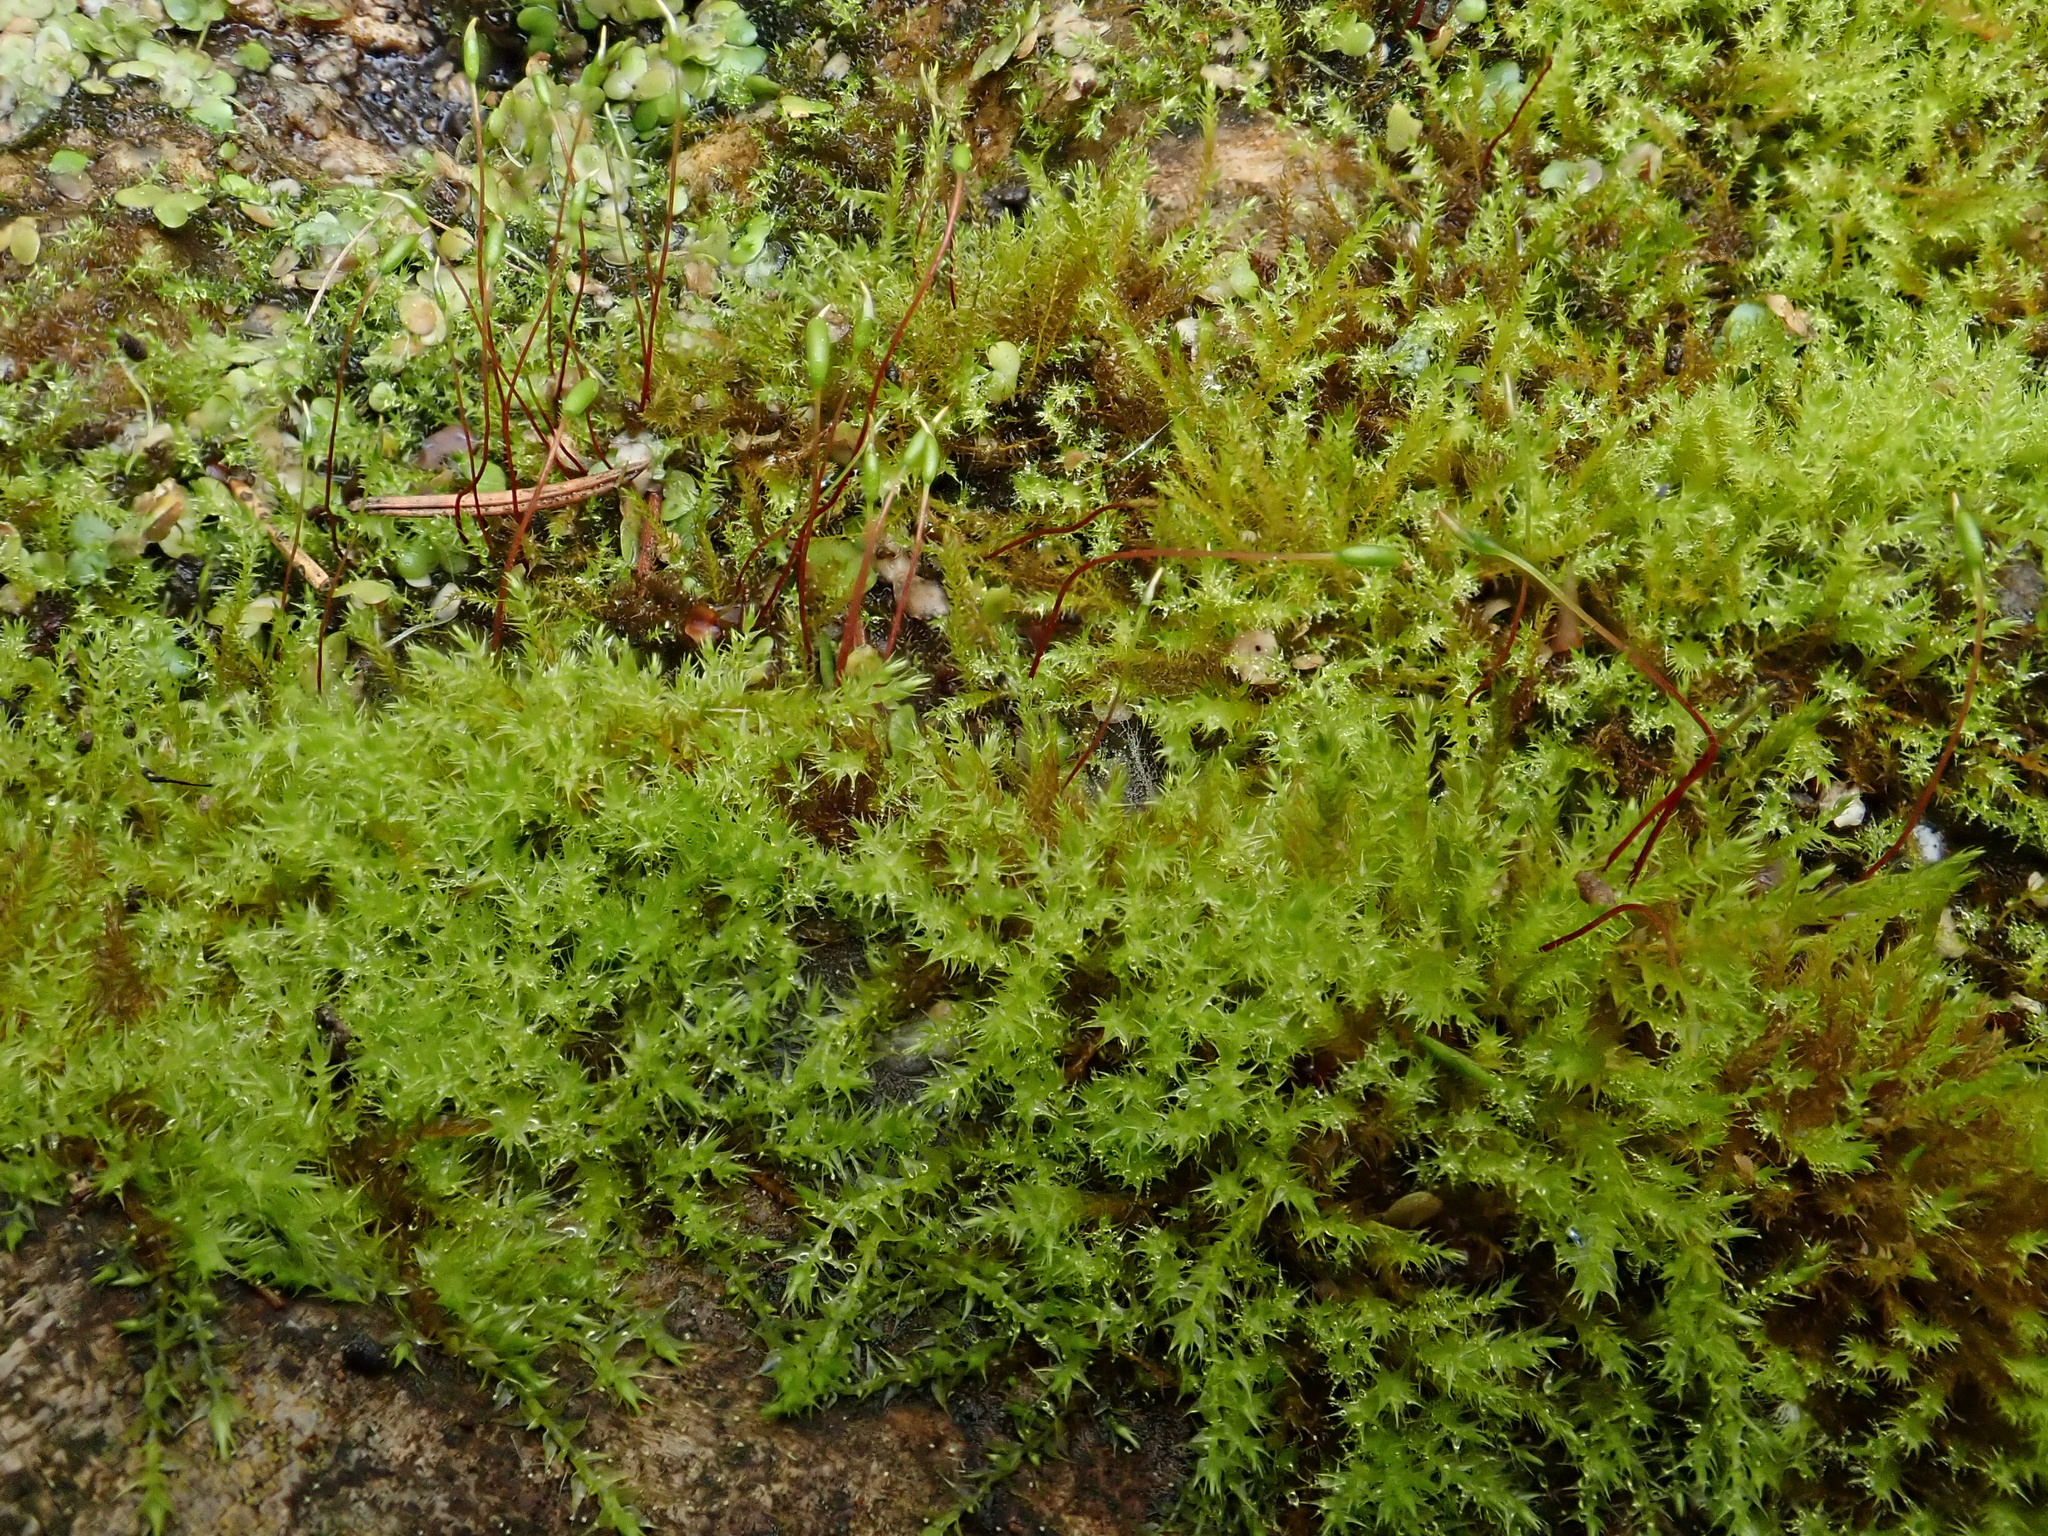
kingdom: Plantae
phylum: Bryophyta
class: Bryopsida
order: Hypnales
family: Amblystegiaceae
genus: Amblystegium
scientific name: Amblystegium serpens
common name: Jurkatzka's feather moss
